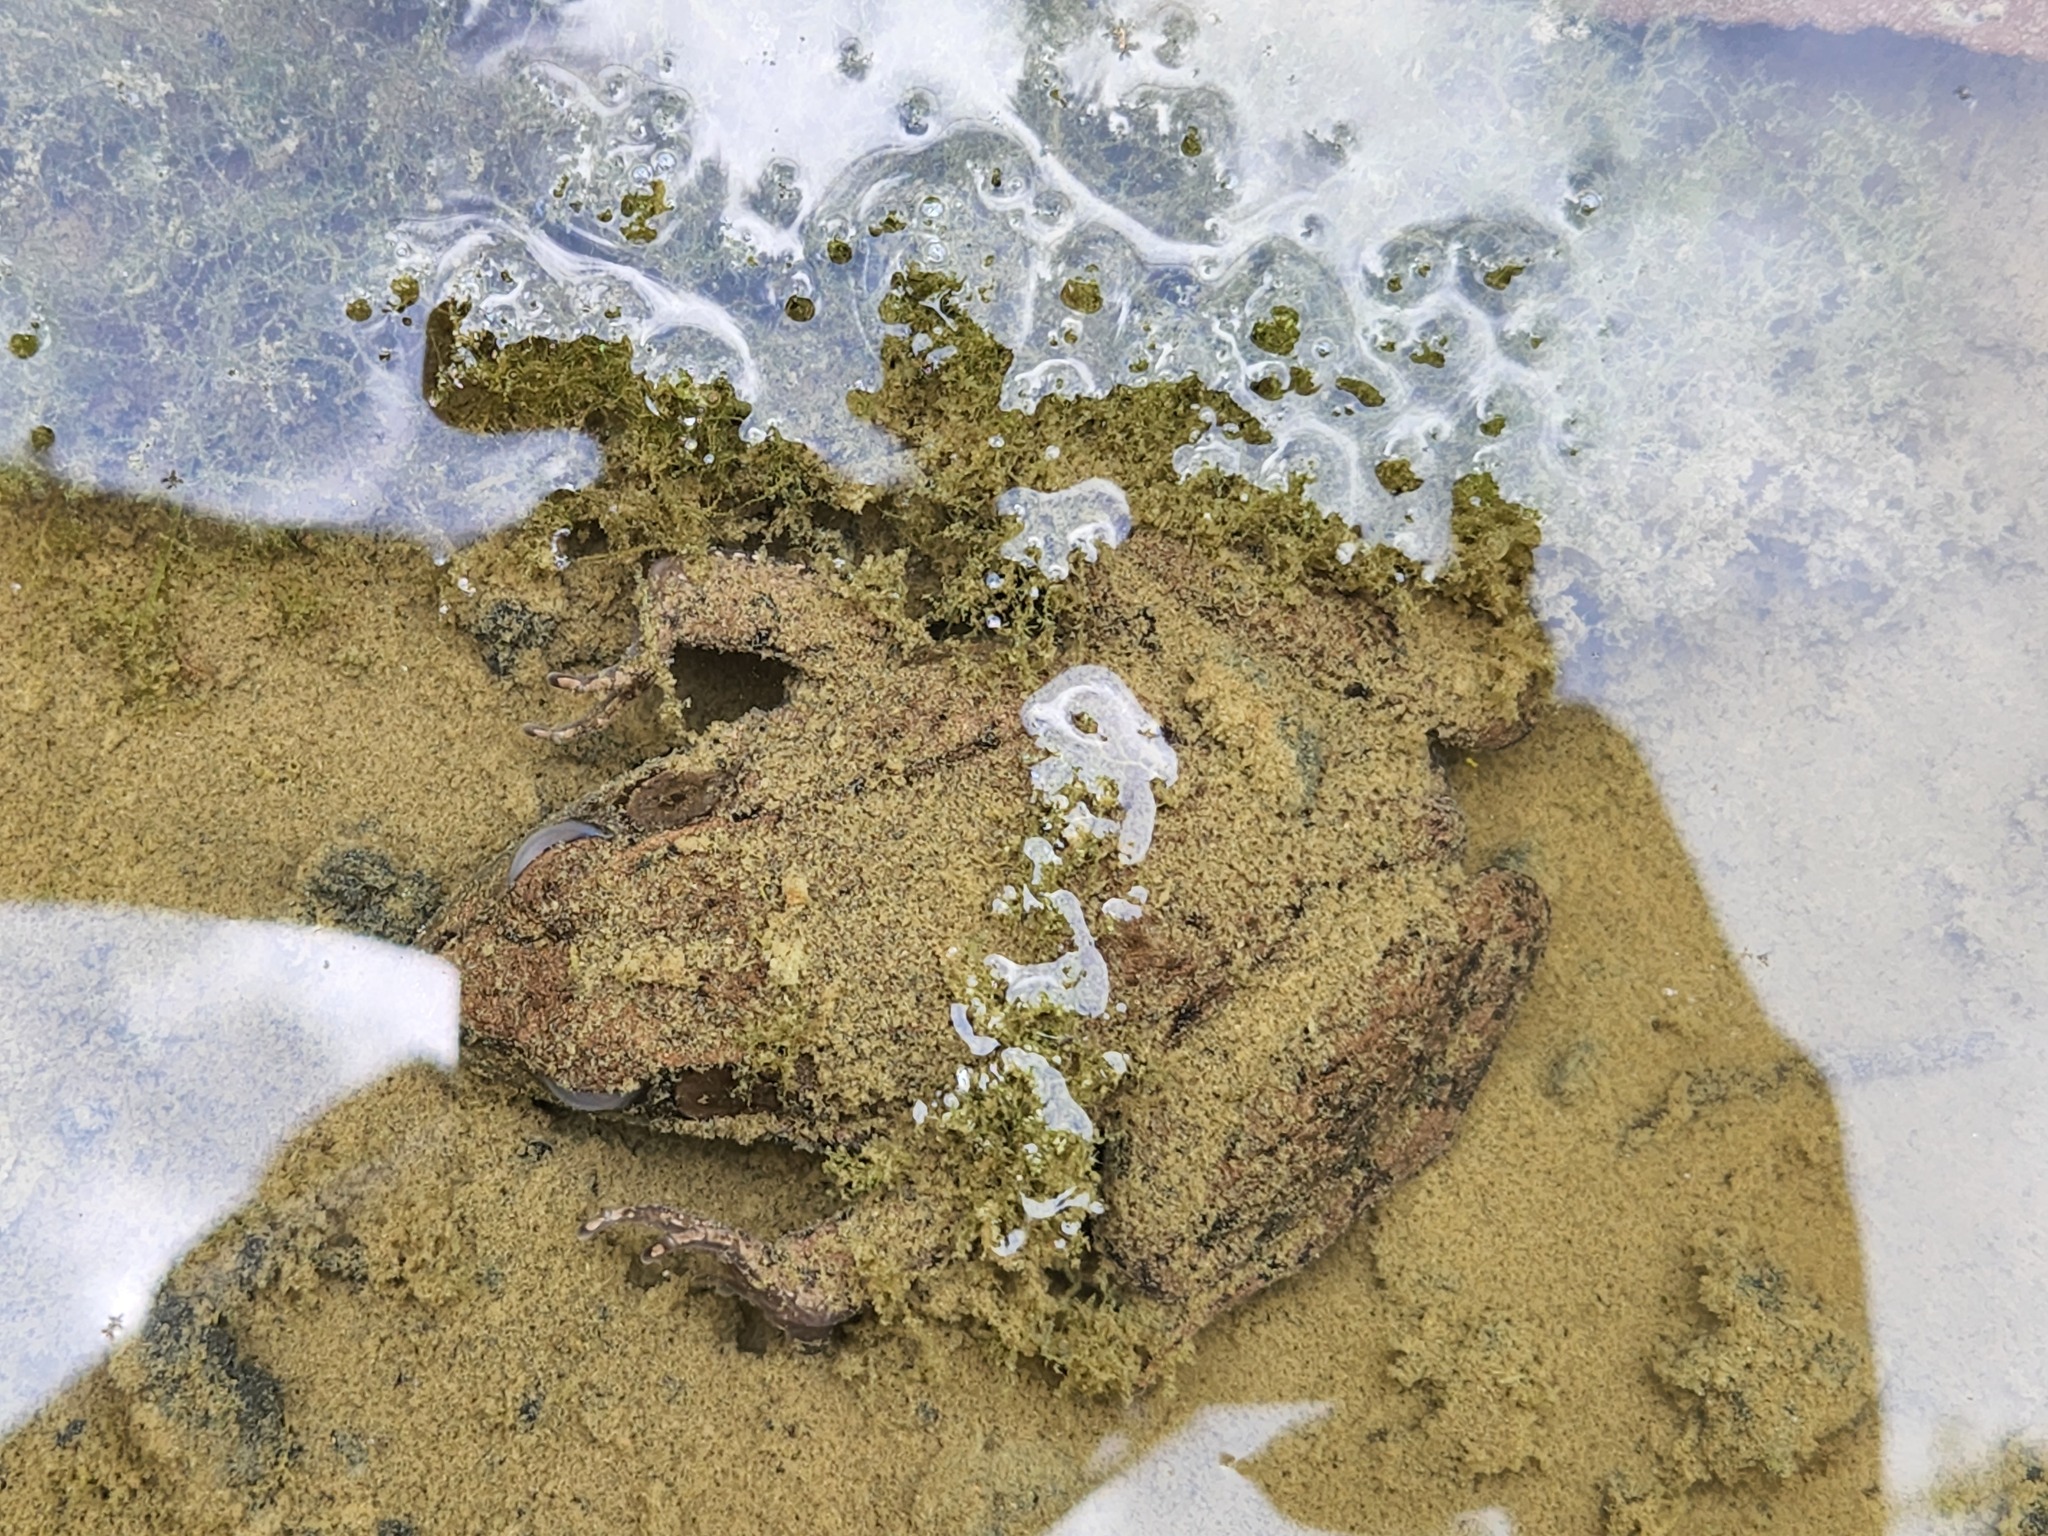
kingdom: Animalia
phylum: Chordata
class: Amphibia
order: Anura
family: Ranidae
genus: Lithobates
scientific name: Lithobates clamitans
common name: Green frog
